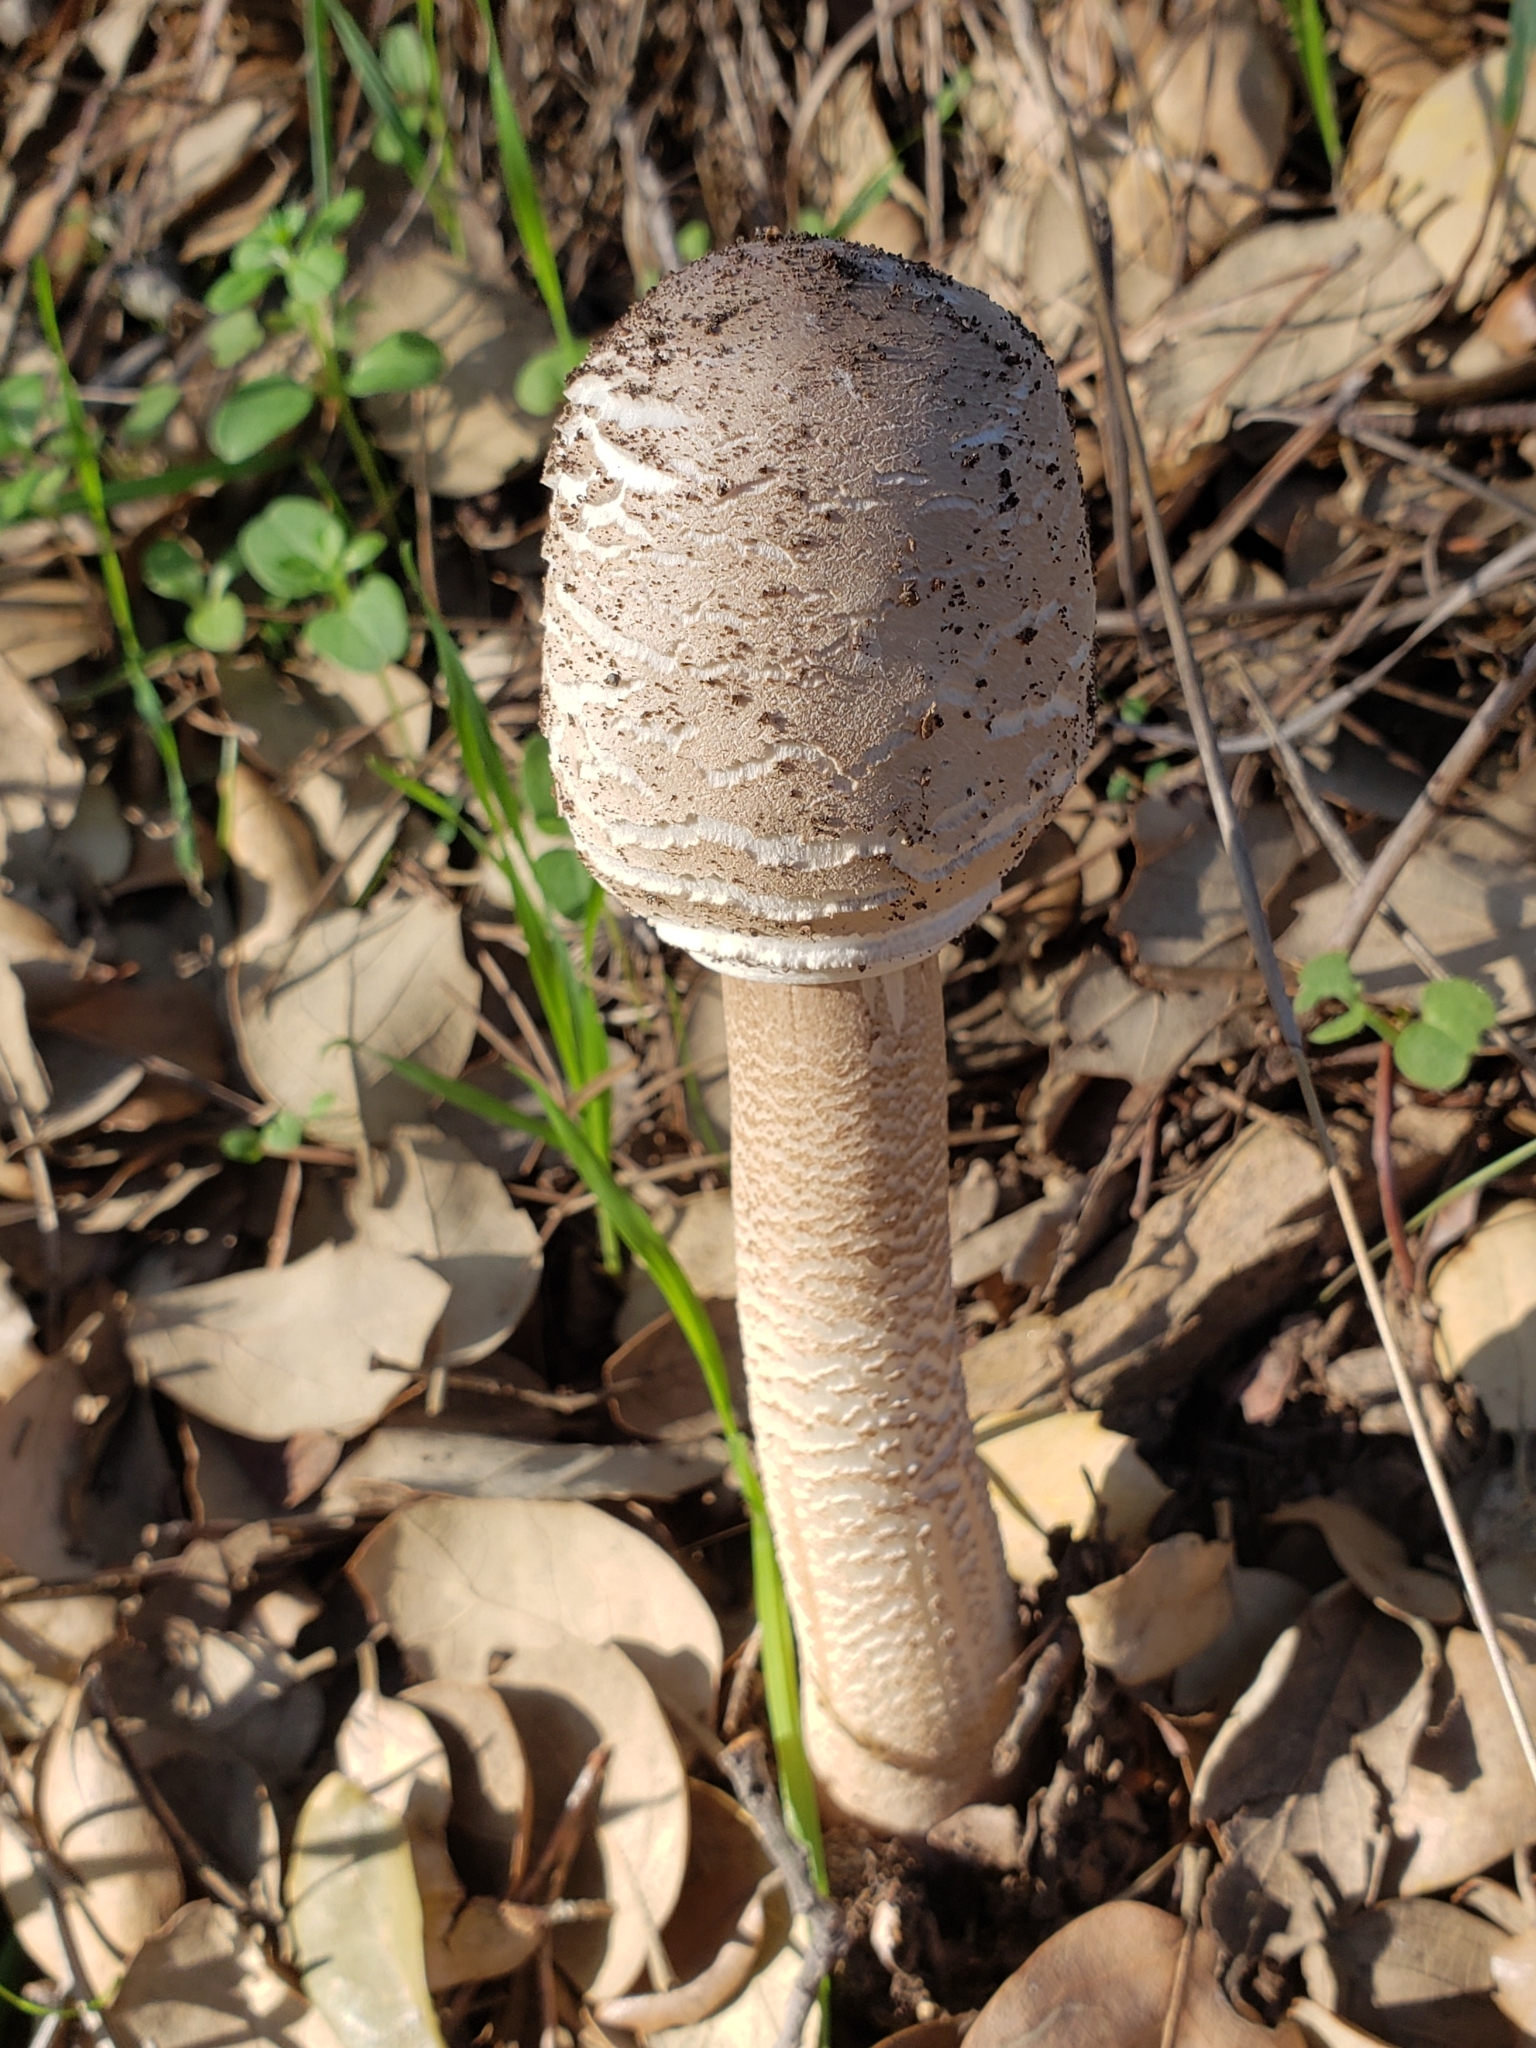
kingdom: Fungi
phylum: Basidiomycota
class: Agaricomycetes
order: Agaricales
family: Agaricaceae
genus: Macrolepiota
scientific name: Macrolepiota procera
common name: Parasol
